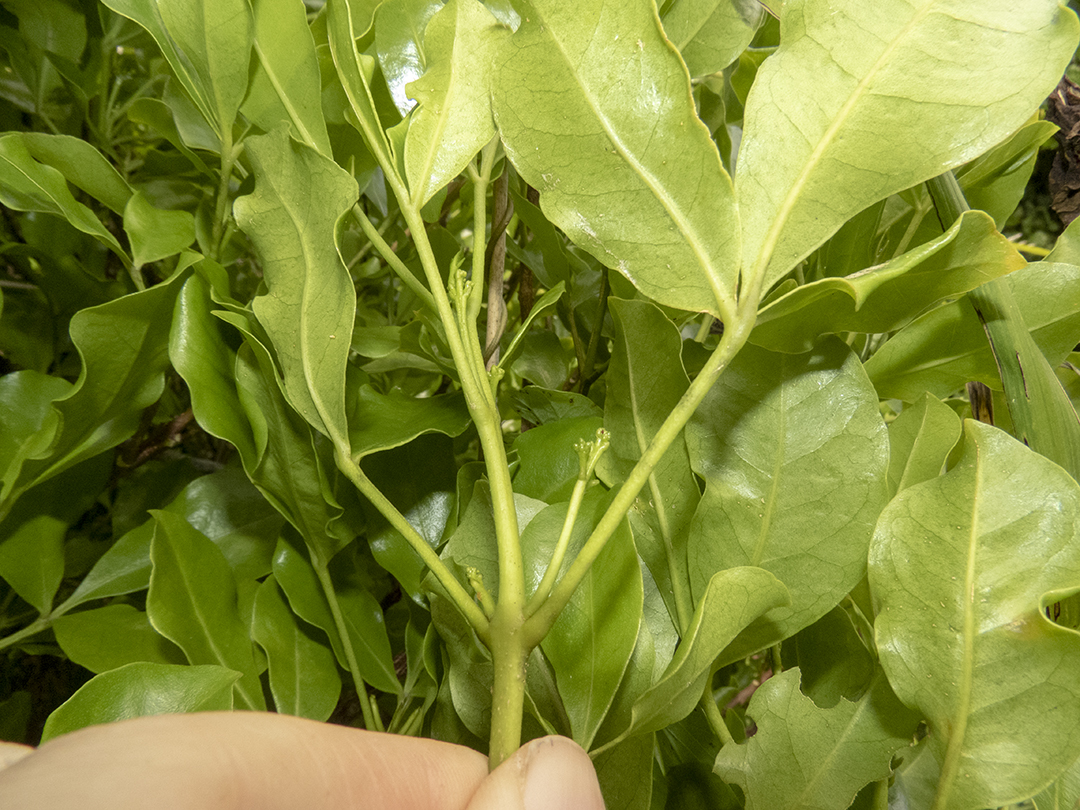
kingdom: Plantae
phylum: Tracheophyta
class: Magnoliopsida
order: Sapindales
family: Rutaceae
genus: Melicope
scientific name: Melicope ternata
